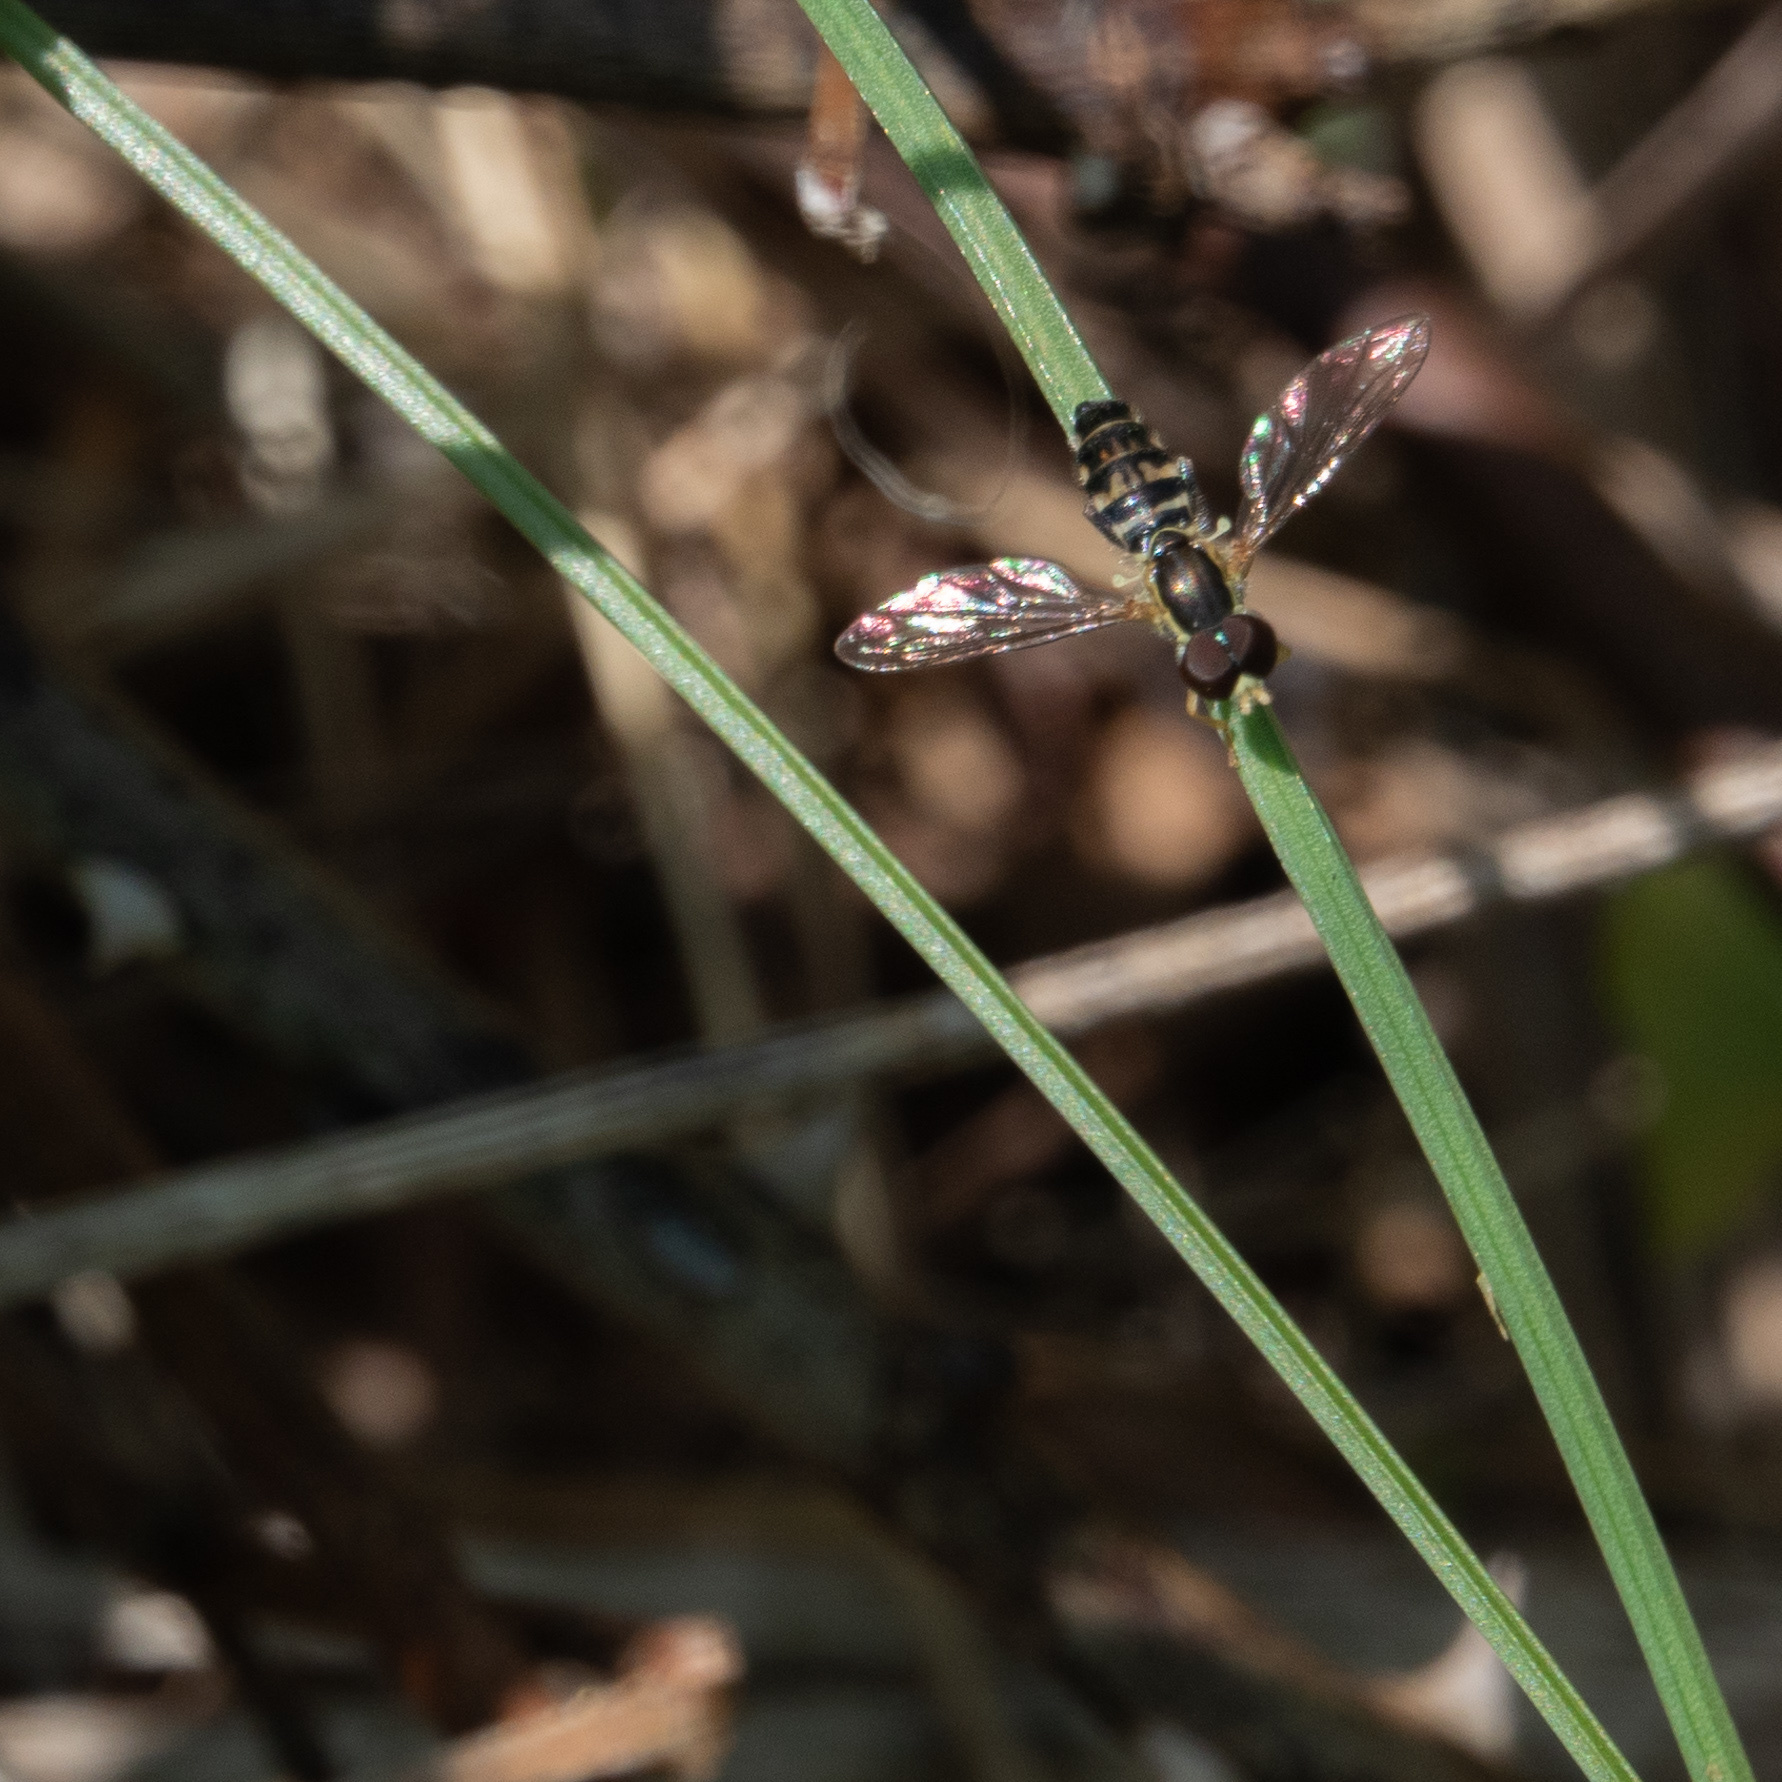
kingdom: Animalia
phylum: Arthropoda
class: Insecta
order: Diptera
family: Syrphidae
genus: Toxomerus
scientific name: Toxomerus geminatus
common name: Eastern calligrapher
